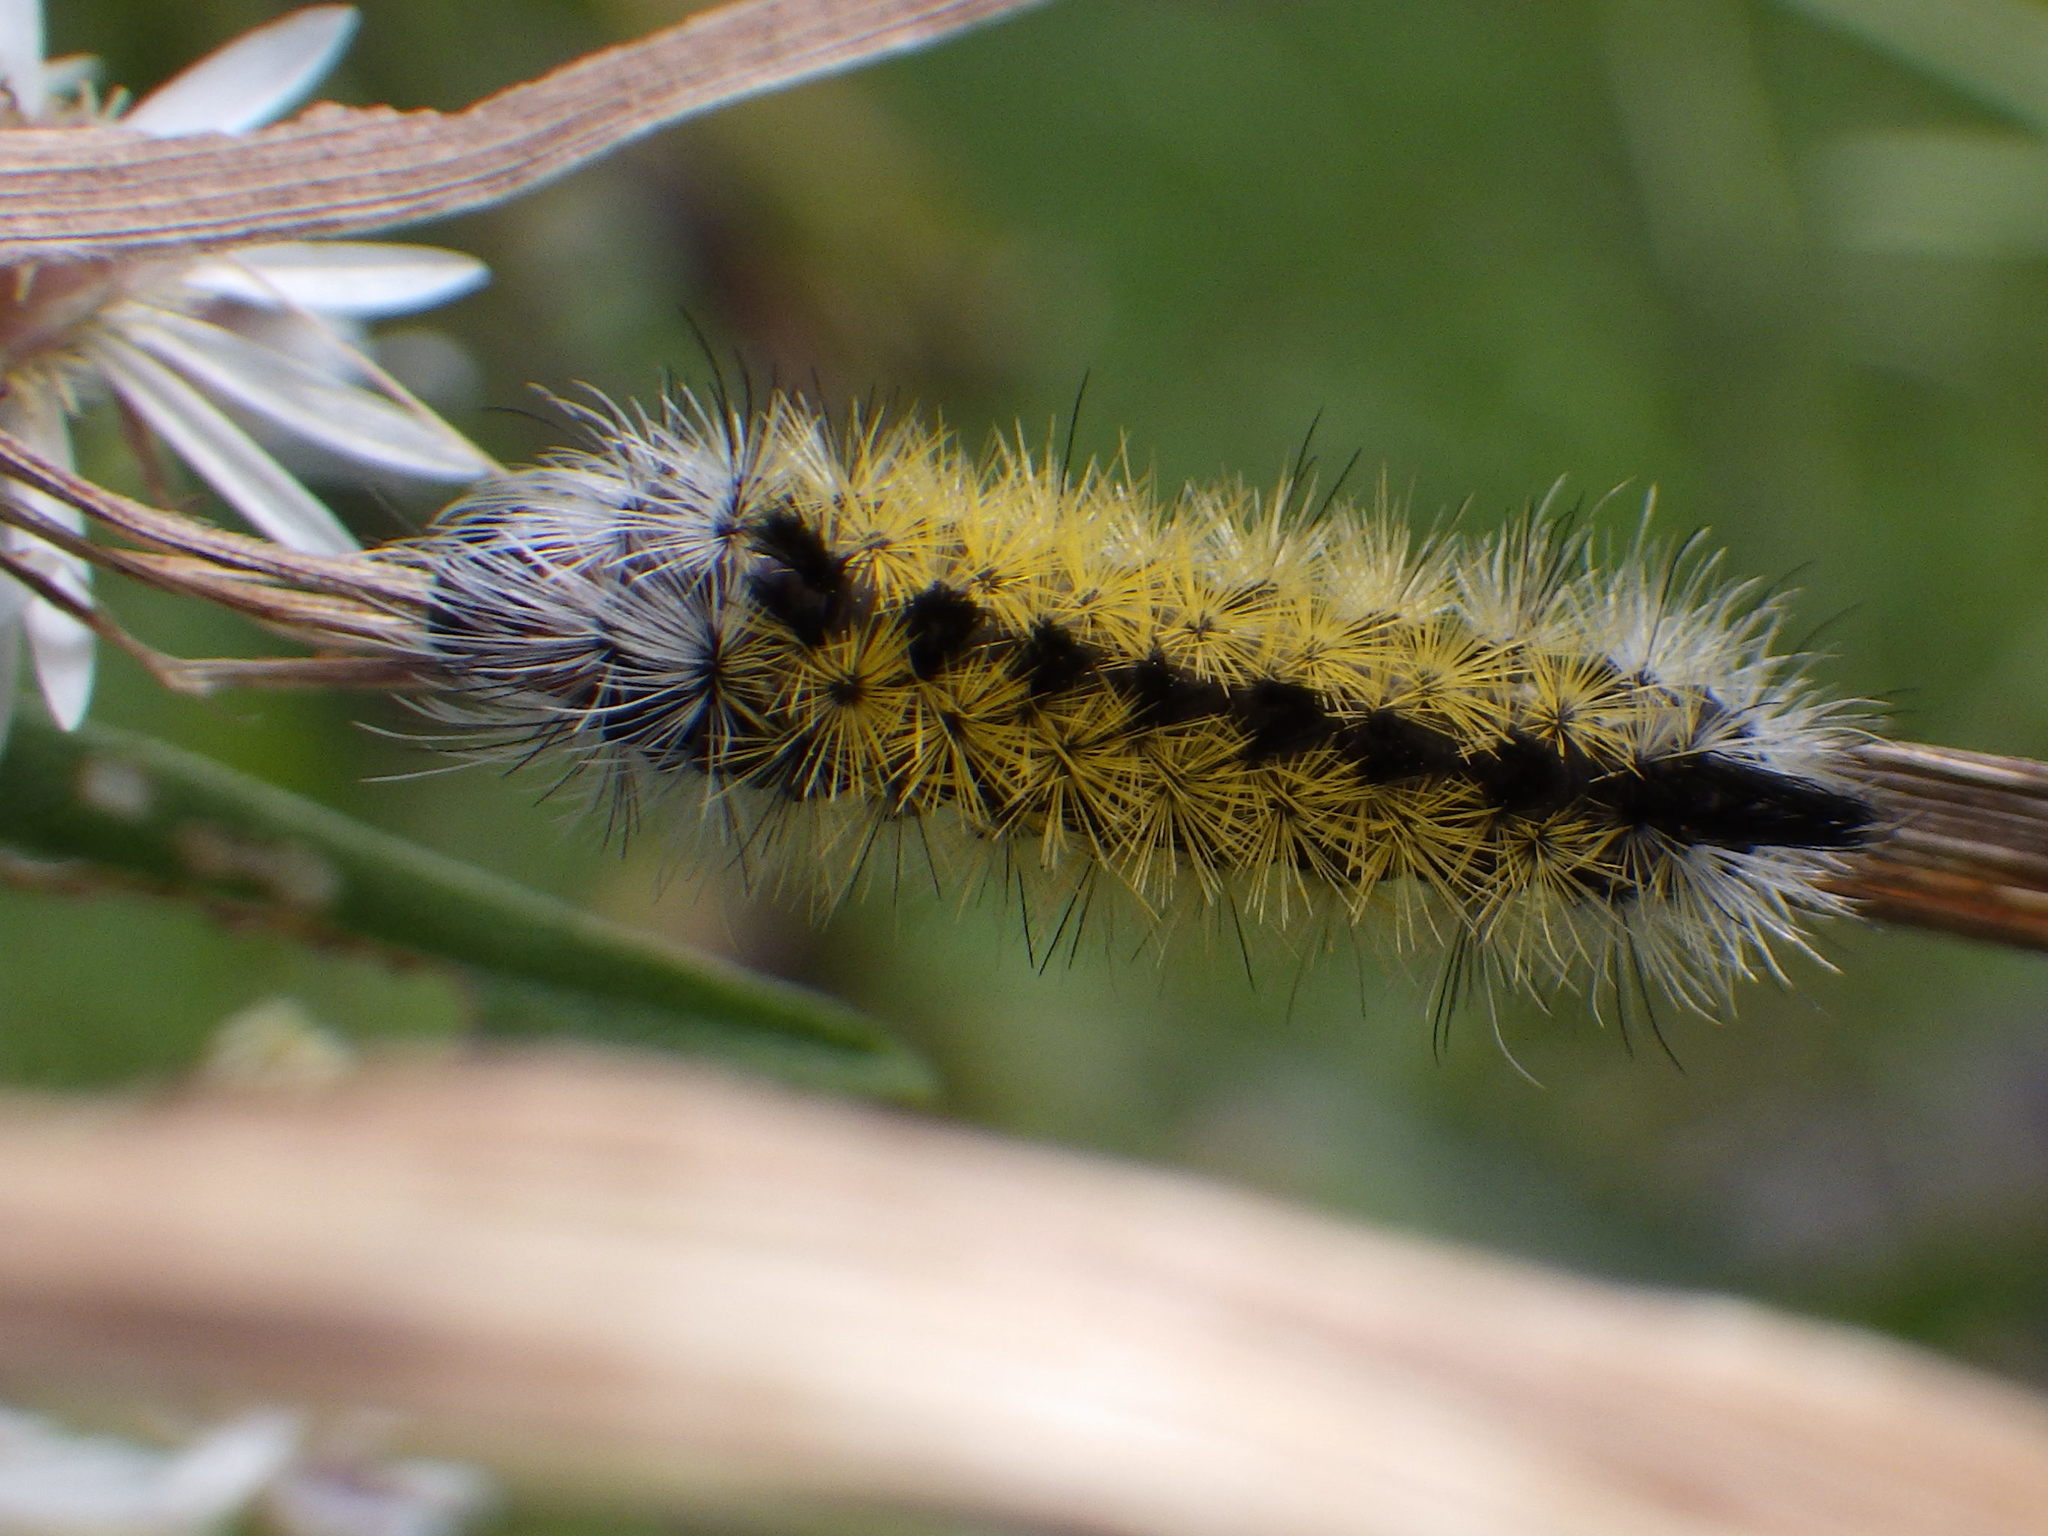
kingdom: Animalia
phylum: Arthropoda
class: Insecta
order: Lepidoptera
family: Erebidae
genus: Ctenucha
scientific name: Ctenucha virginica
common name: Virginia ctenucha moth
